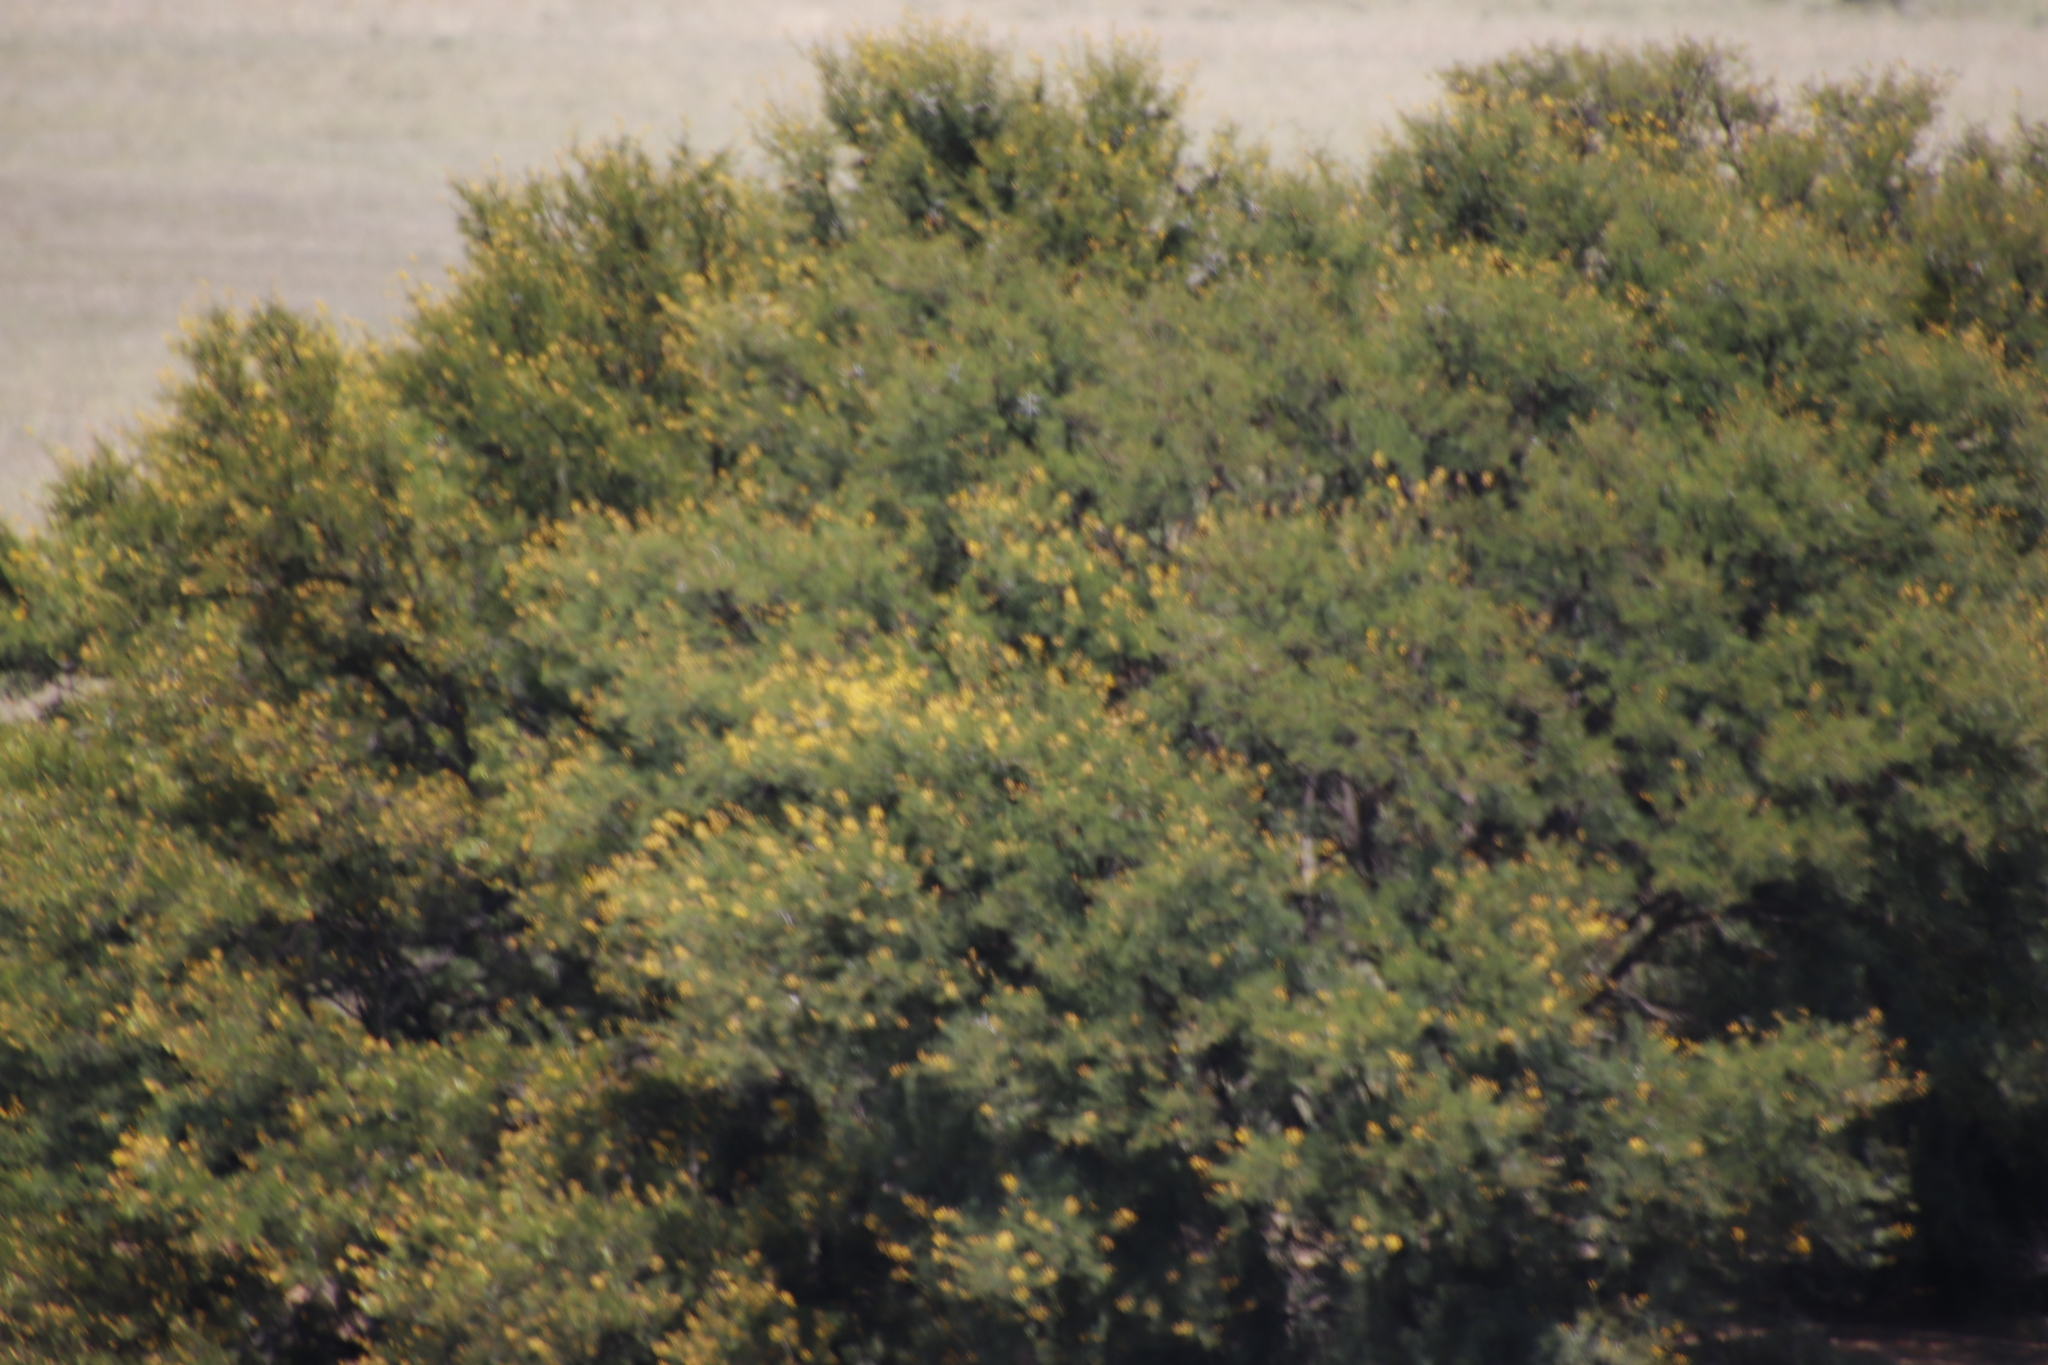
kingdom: Plantae
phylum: Tracheophyta
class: Magnoliopsida
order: Fabales
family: Fabaceae
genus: Vachellia
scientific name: Vachellia karroo
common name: Sweet thorn
